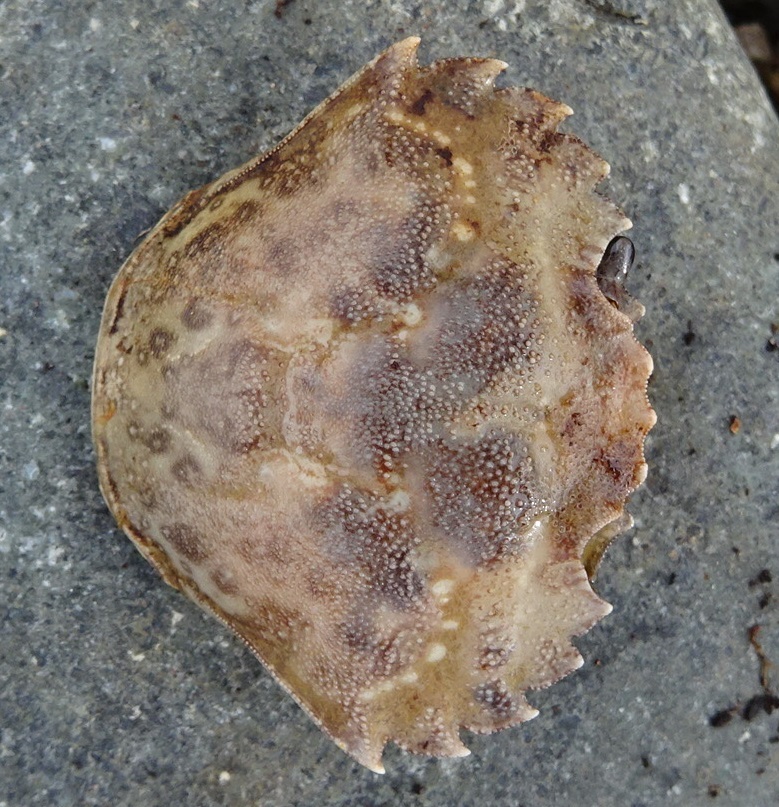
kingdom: Animalia
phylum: Arthropoda
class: Malacostraca
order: Decapoda
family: Carcinidae
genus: Carcinus
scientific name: Carcinus maenas
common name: European green crab
